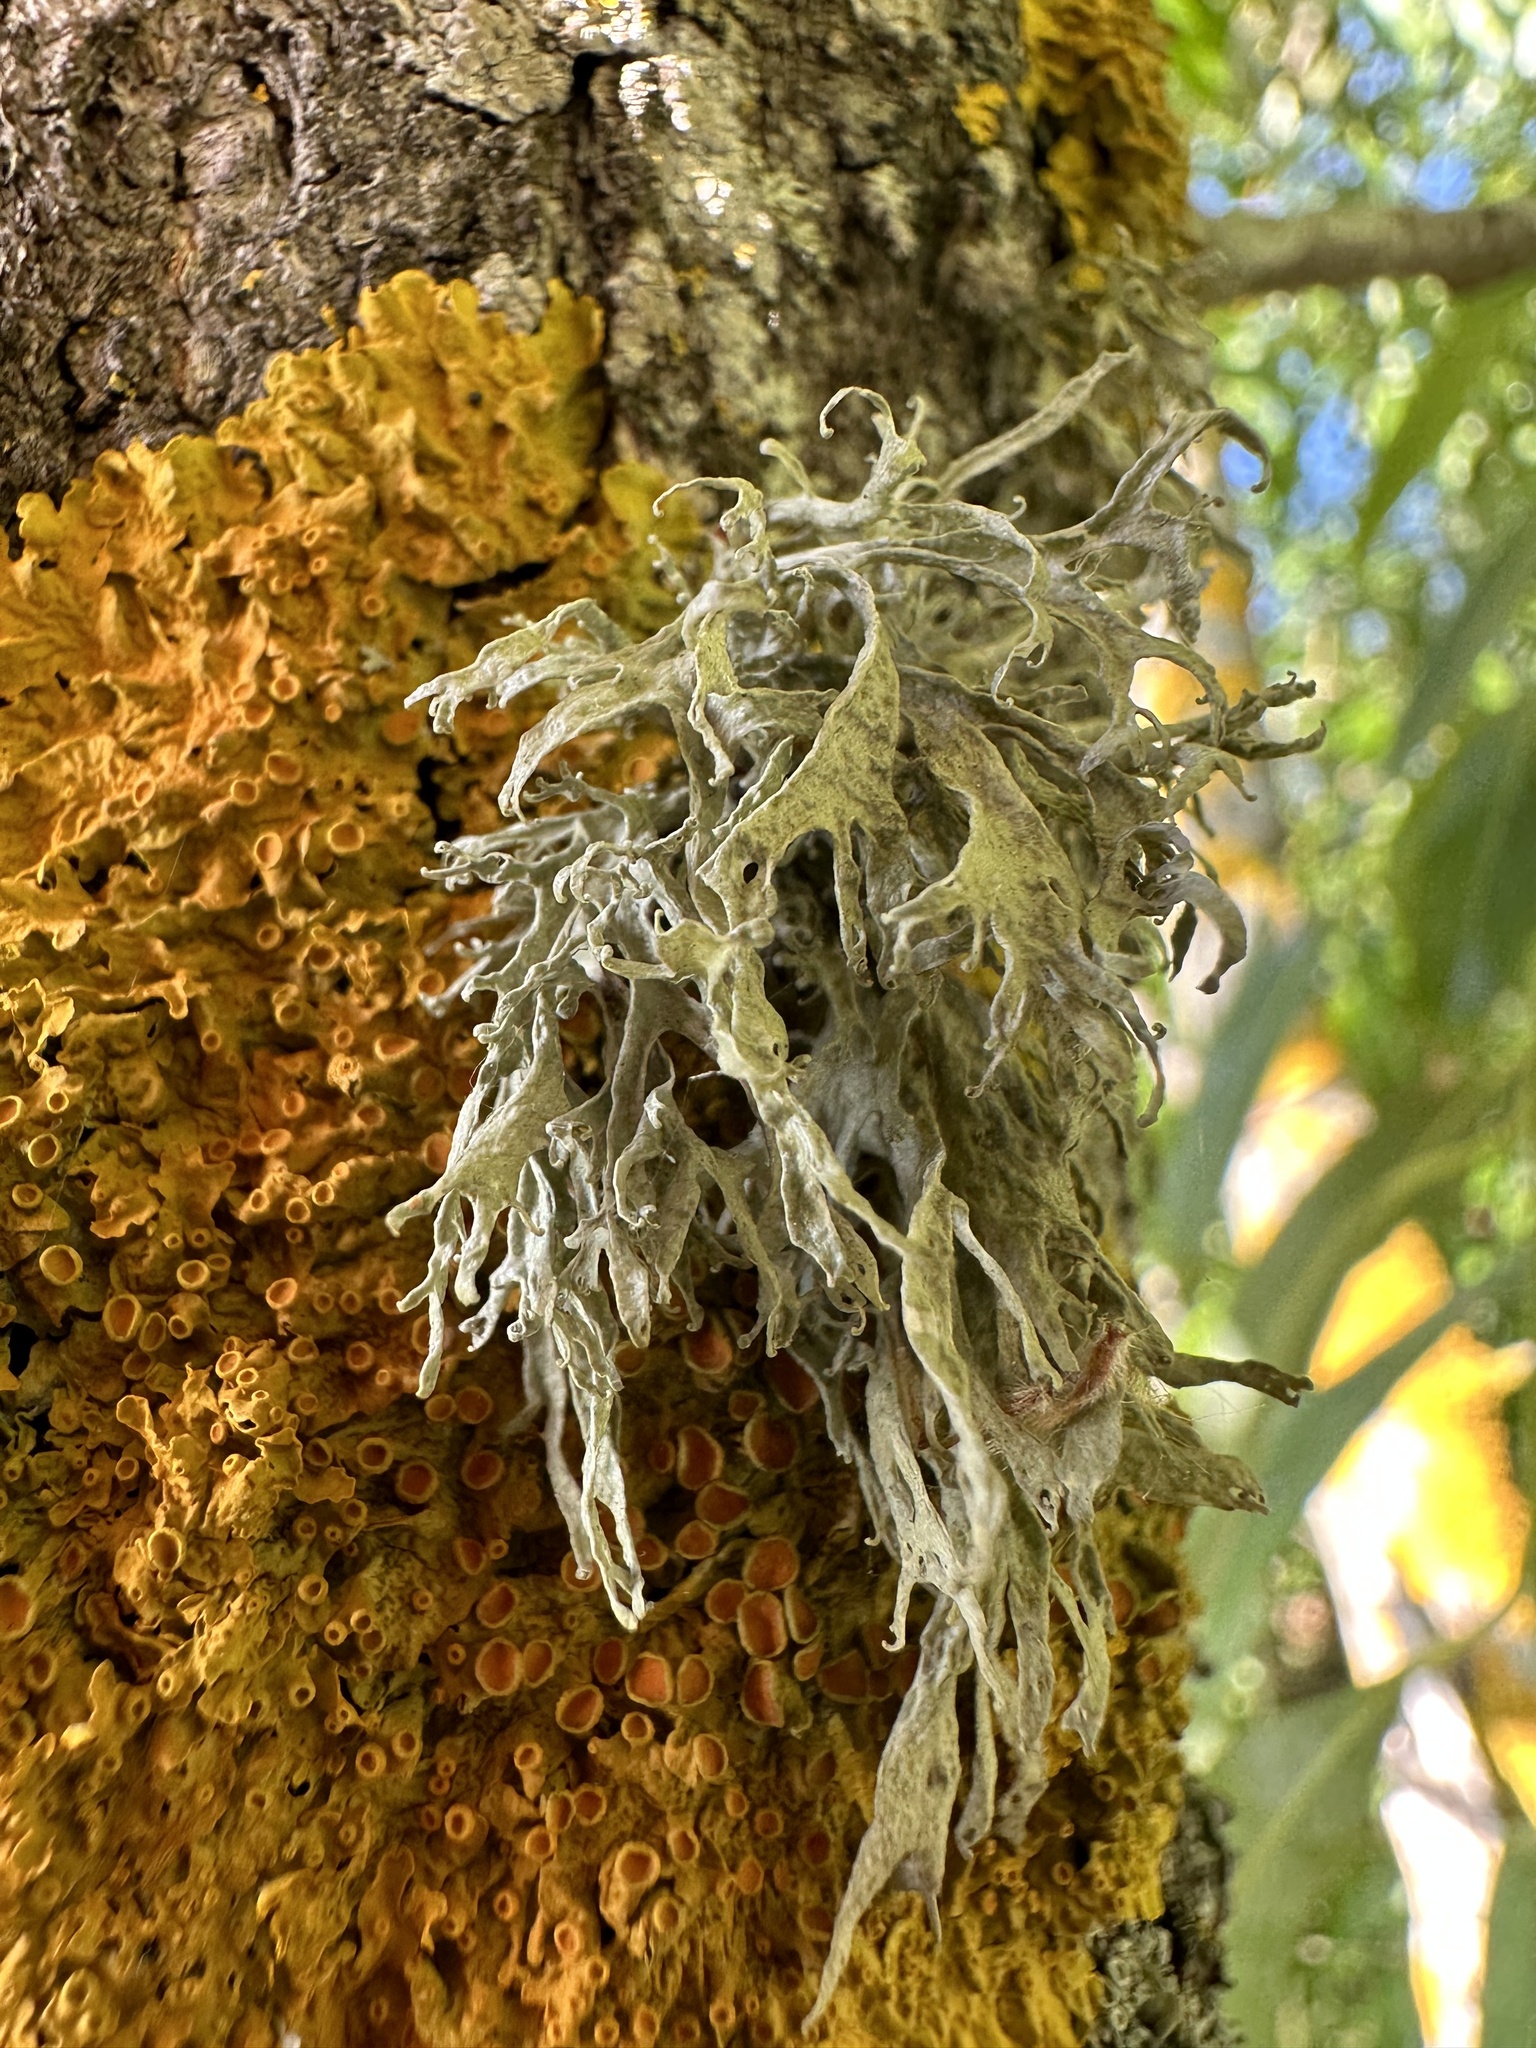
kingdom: Fungi
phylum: Ascomycota
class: Lecanoromycetes
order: Lecanorales
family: Ramalinaceae
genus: Ramalina
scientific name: Ramalina fraxinea
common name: Cartilage lichen
